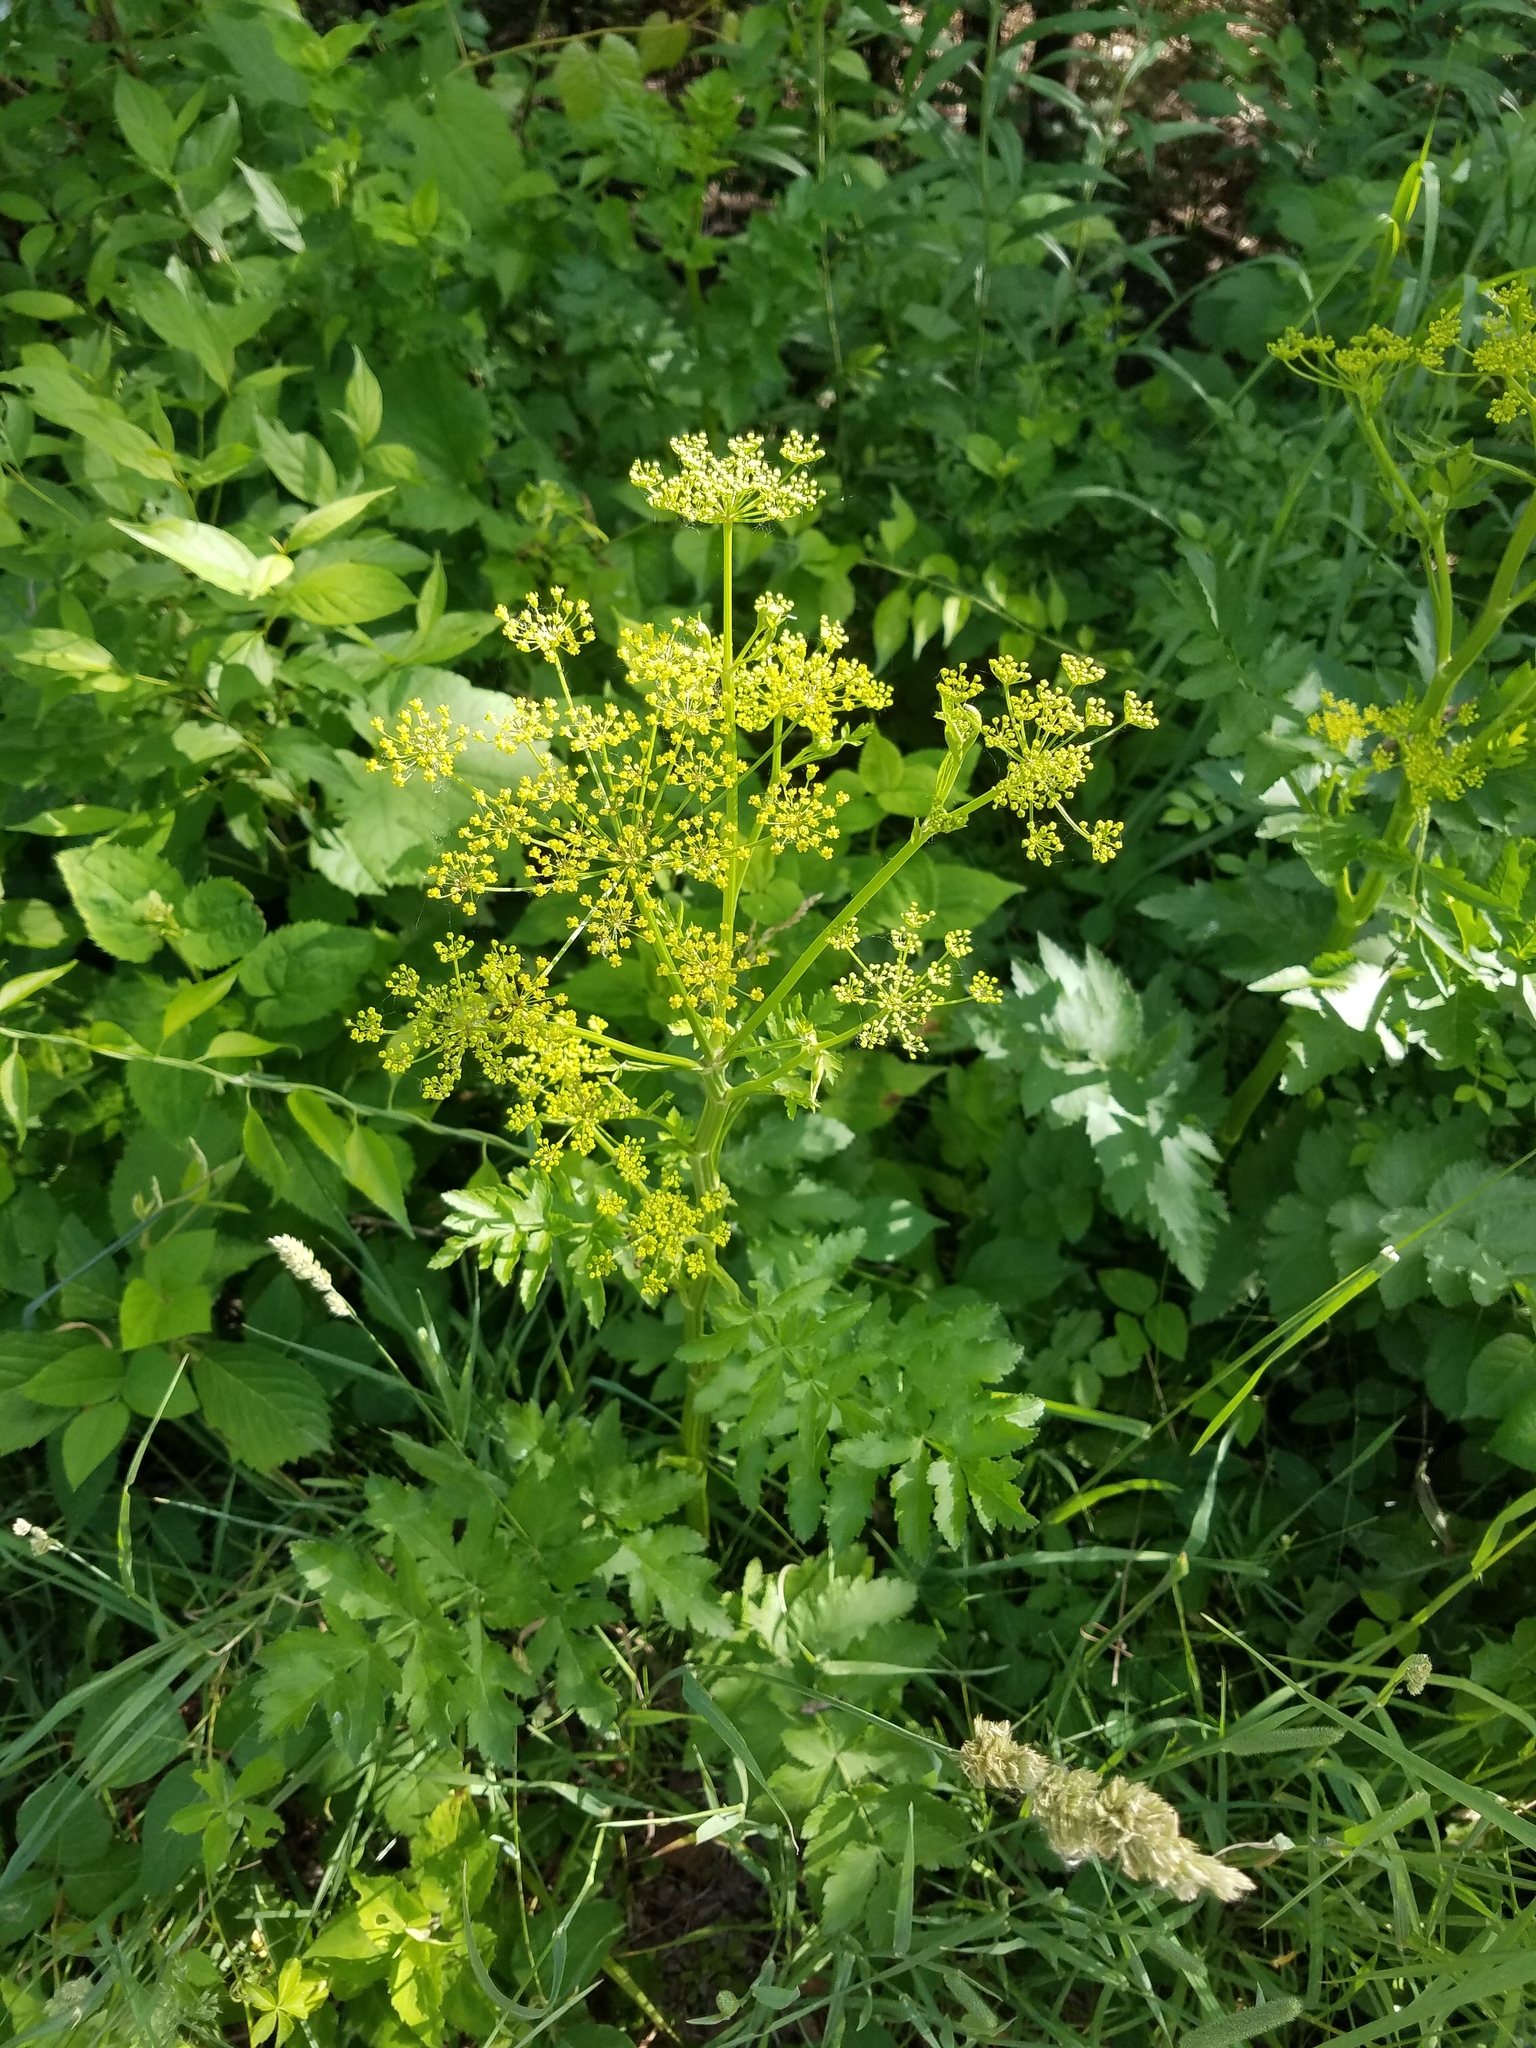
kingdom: Plantae
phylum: Tracheophyta
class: Magnoliopsida
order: Apiales
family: Apiaceae
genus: Pastinaca
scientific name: Pastinaca sativa
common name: Wild parsnip
